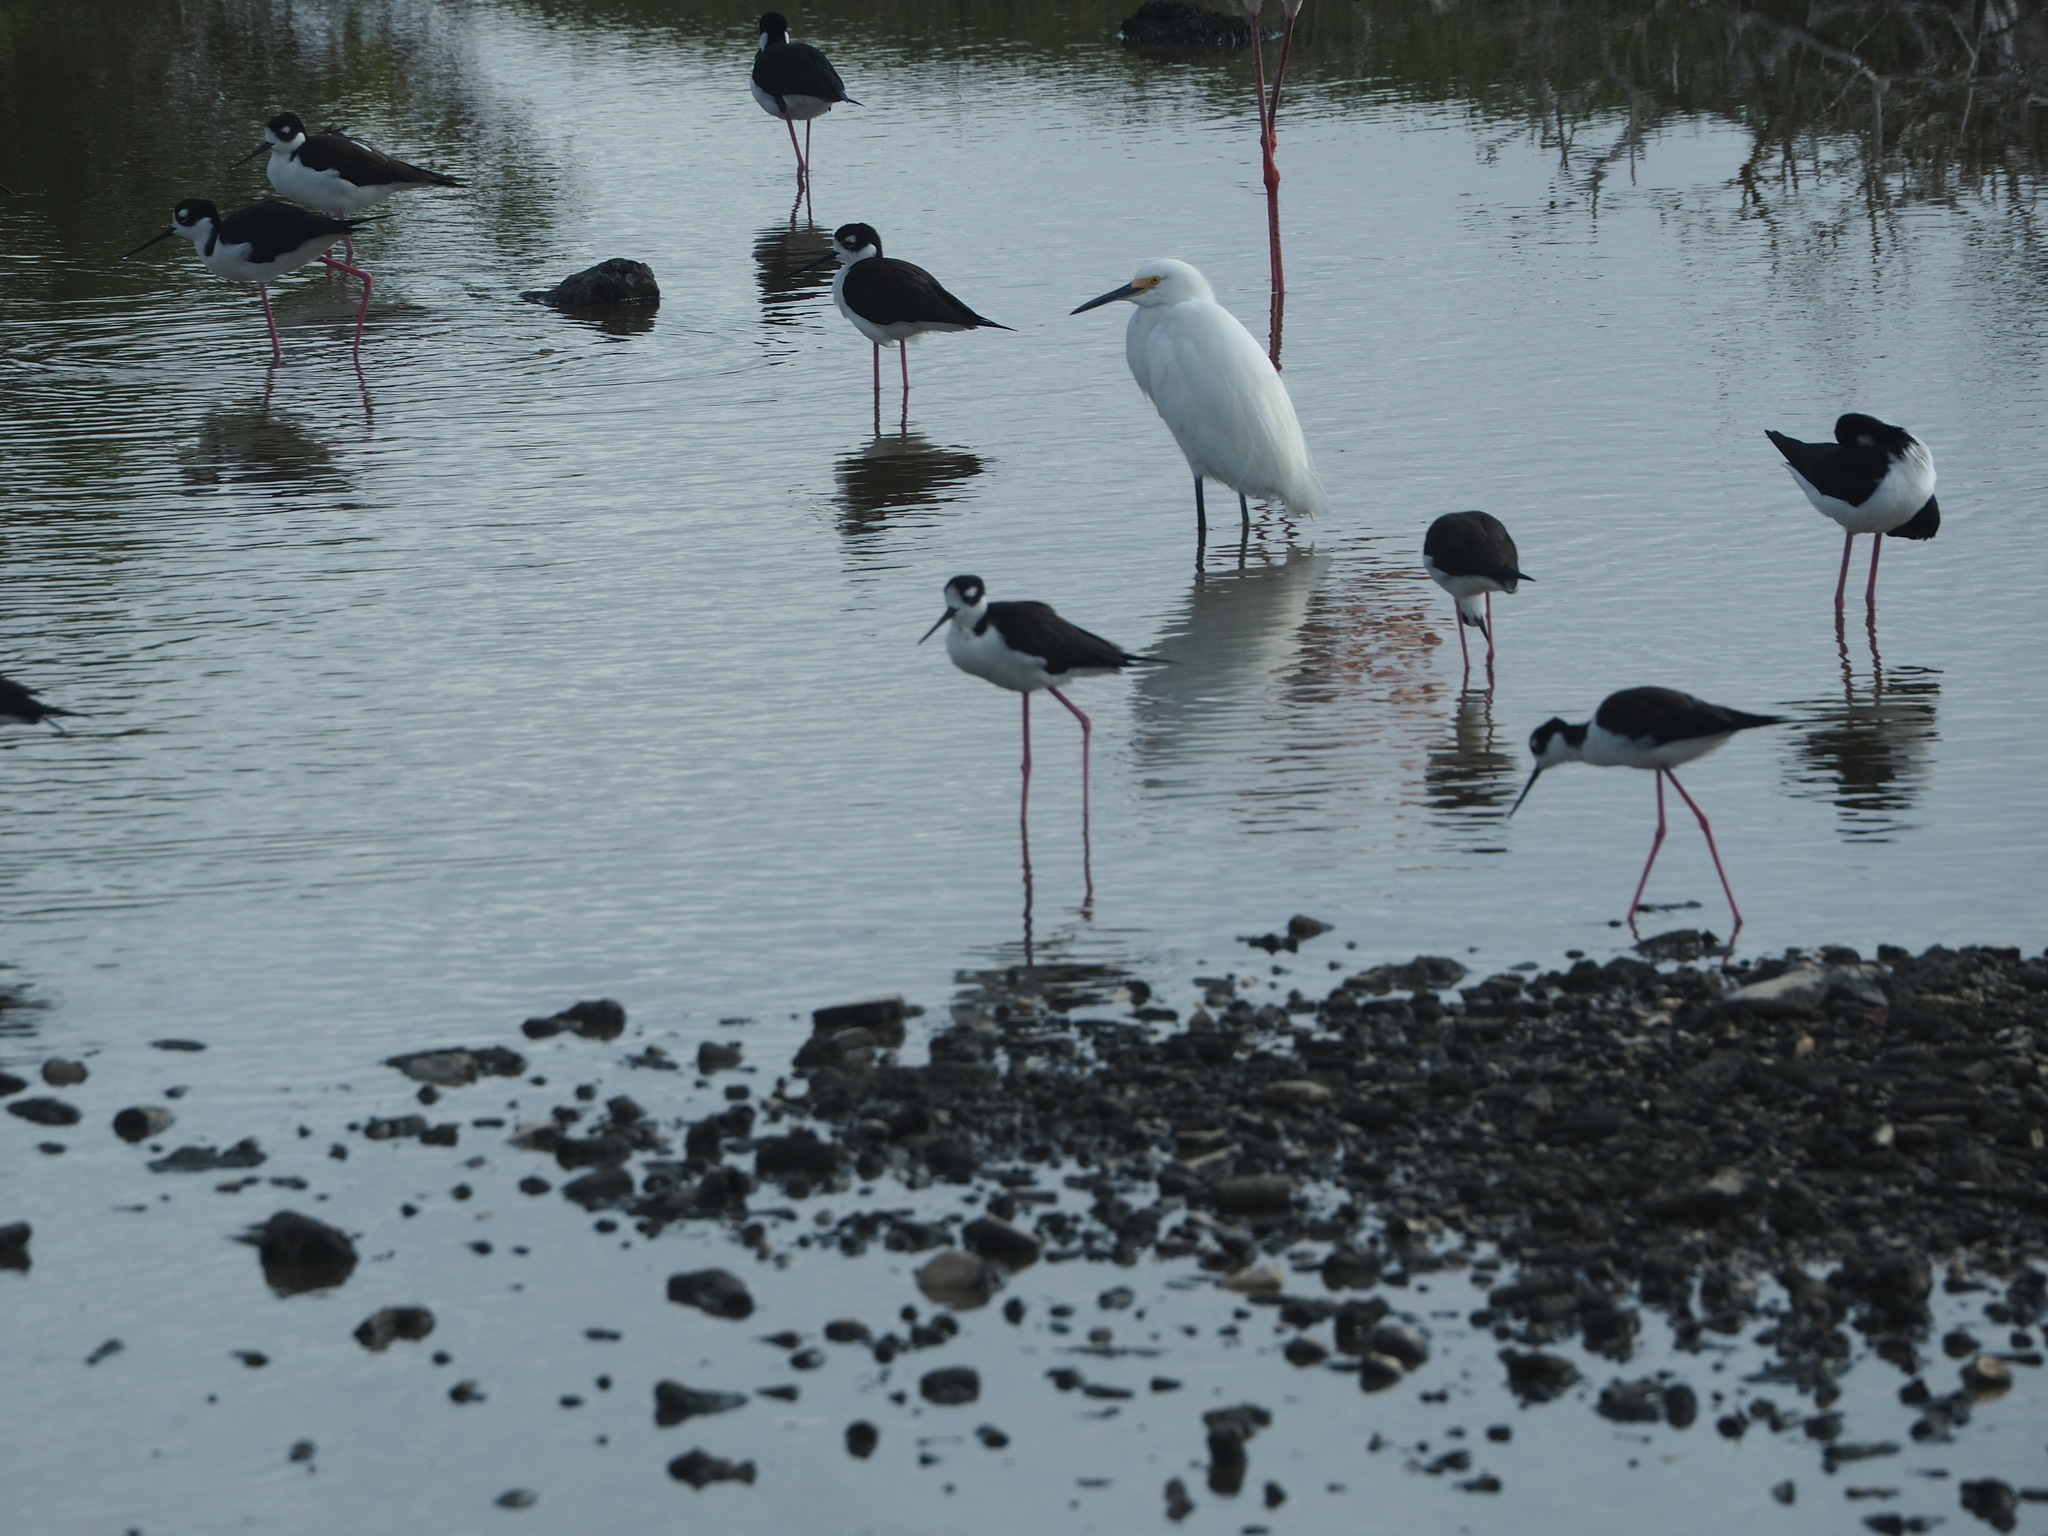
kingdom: Animalia
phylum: Chordata
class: Aves
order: Charadriiformes
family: Recurvirostridae
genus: Himantopus
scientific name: Himantopus mexicanus
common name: Black-necked stilt
